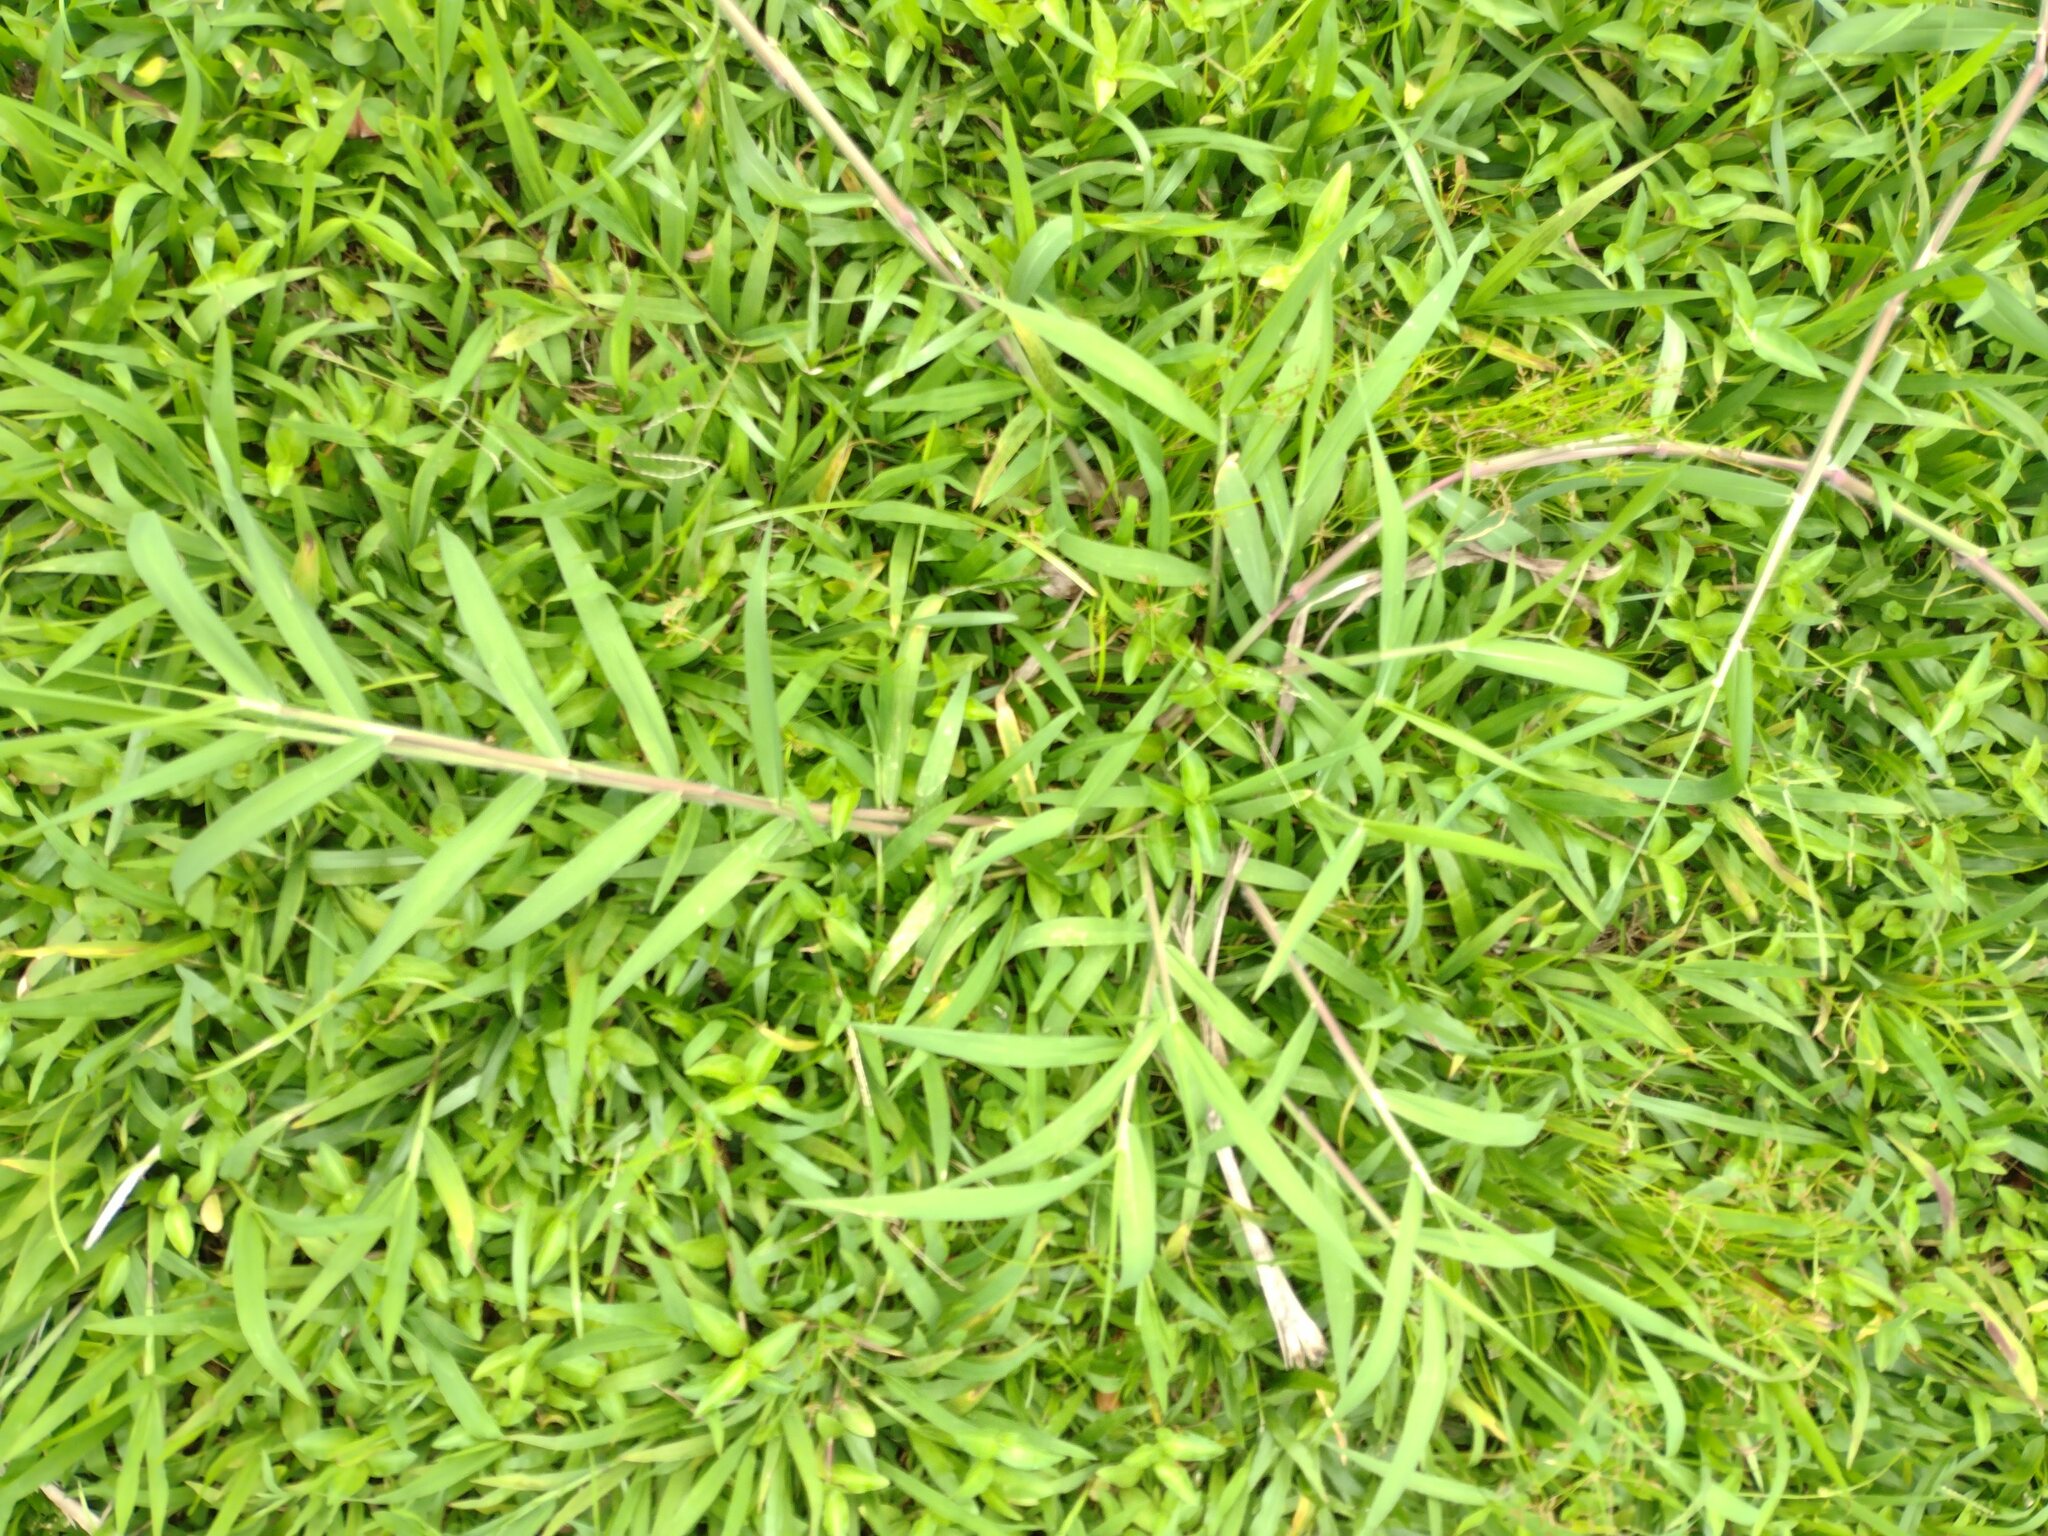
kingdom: Plantae
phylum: Tracheophyta
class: Liliopsida
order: Poales
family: Poaceae
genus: Urochloa
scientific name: Urochloa mutica
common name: Para grass
